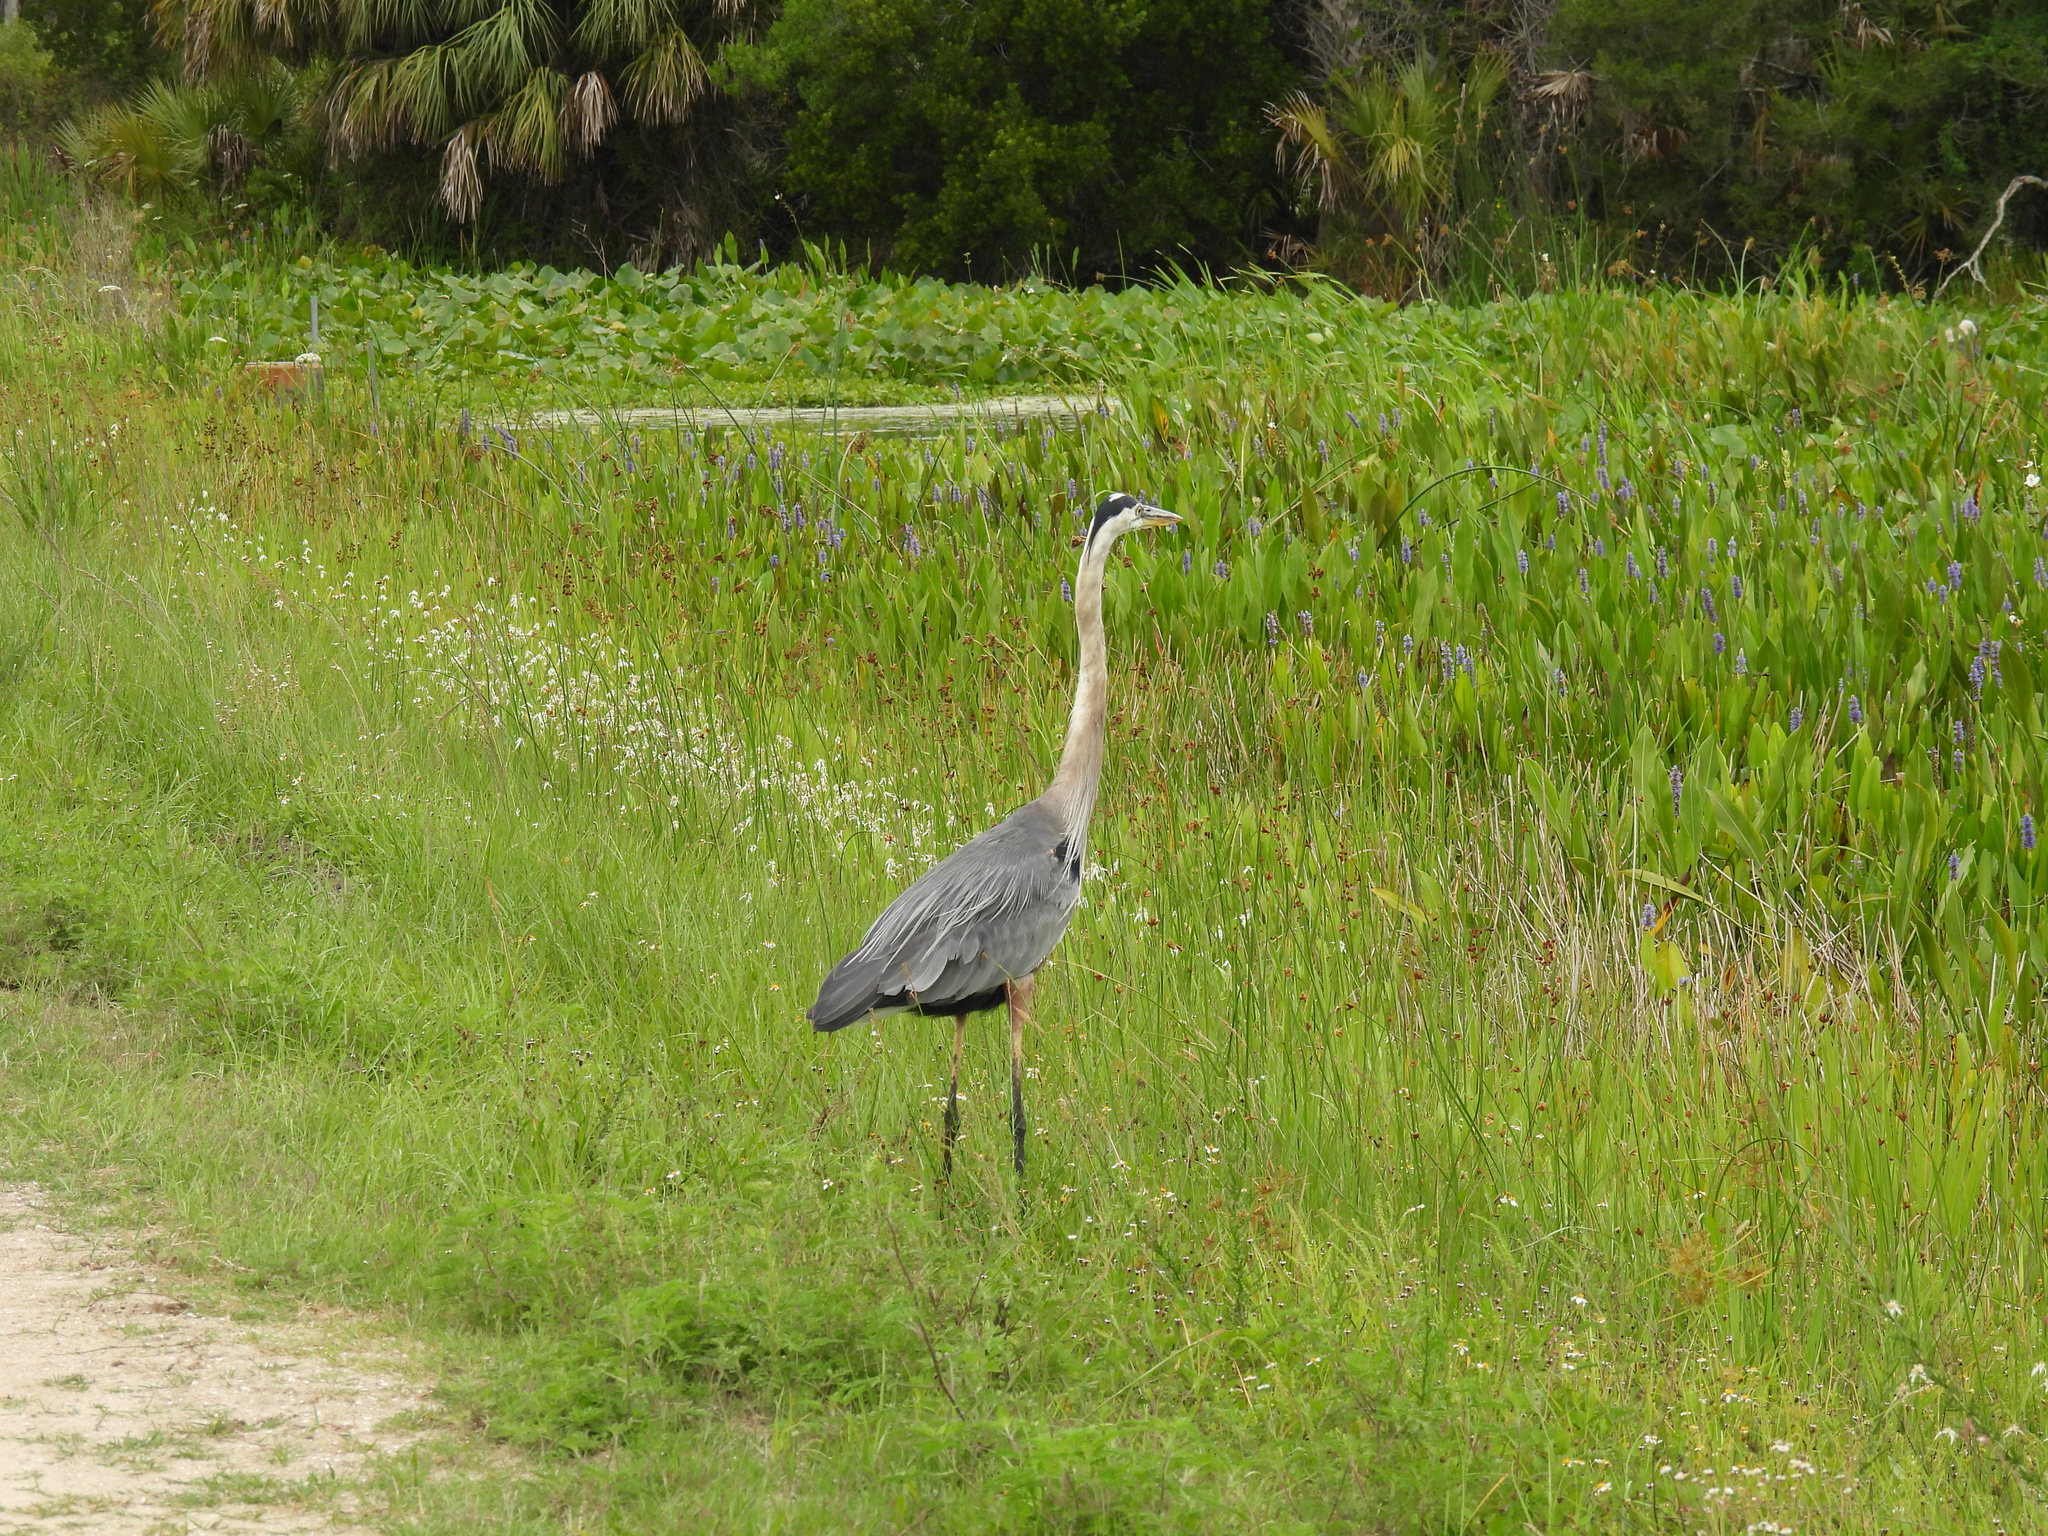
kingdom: Animalia
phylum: Chordata
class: Aves
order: Pelecaniformes
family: Ardeidae
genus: Ardea
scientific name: Ardea herodias
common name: Great blue heron
